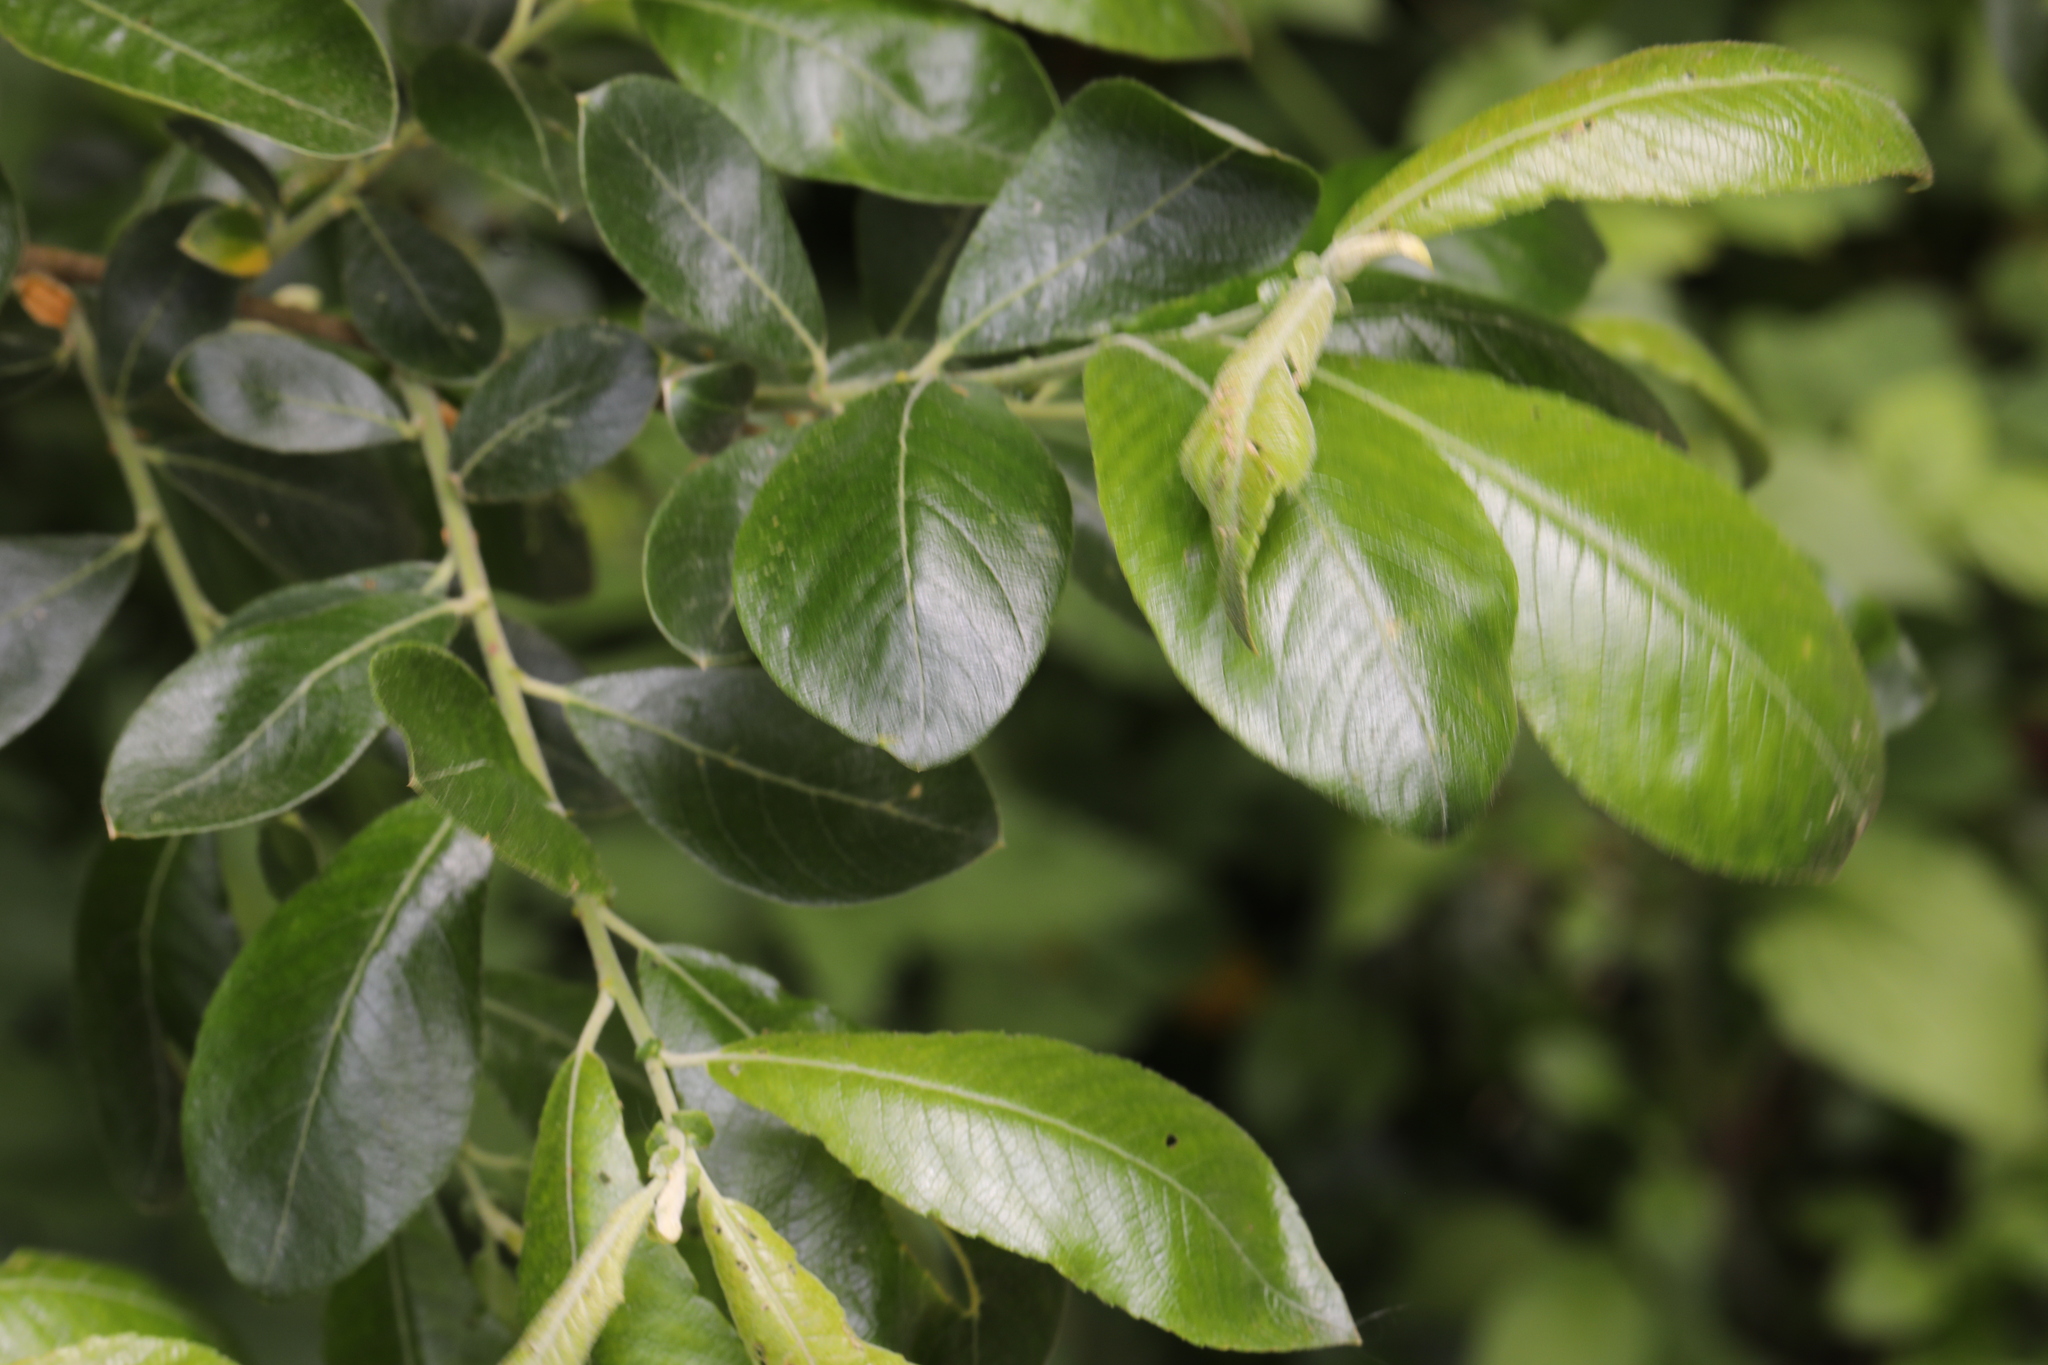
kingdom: Plantae
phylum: Tracheophyta
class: Magnoliopsida
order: Malpighiales
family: Salicaceae
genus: Salix
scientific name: Salix atrocinerea
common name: Rusty willow
